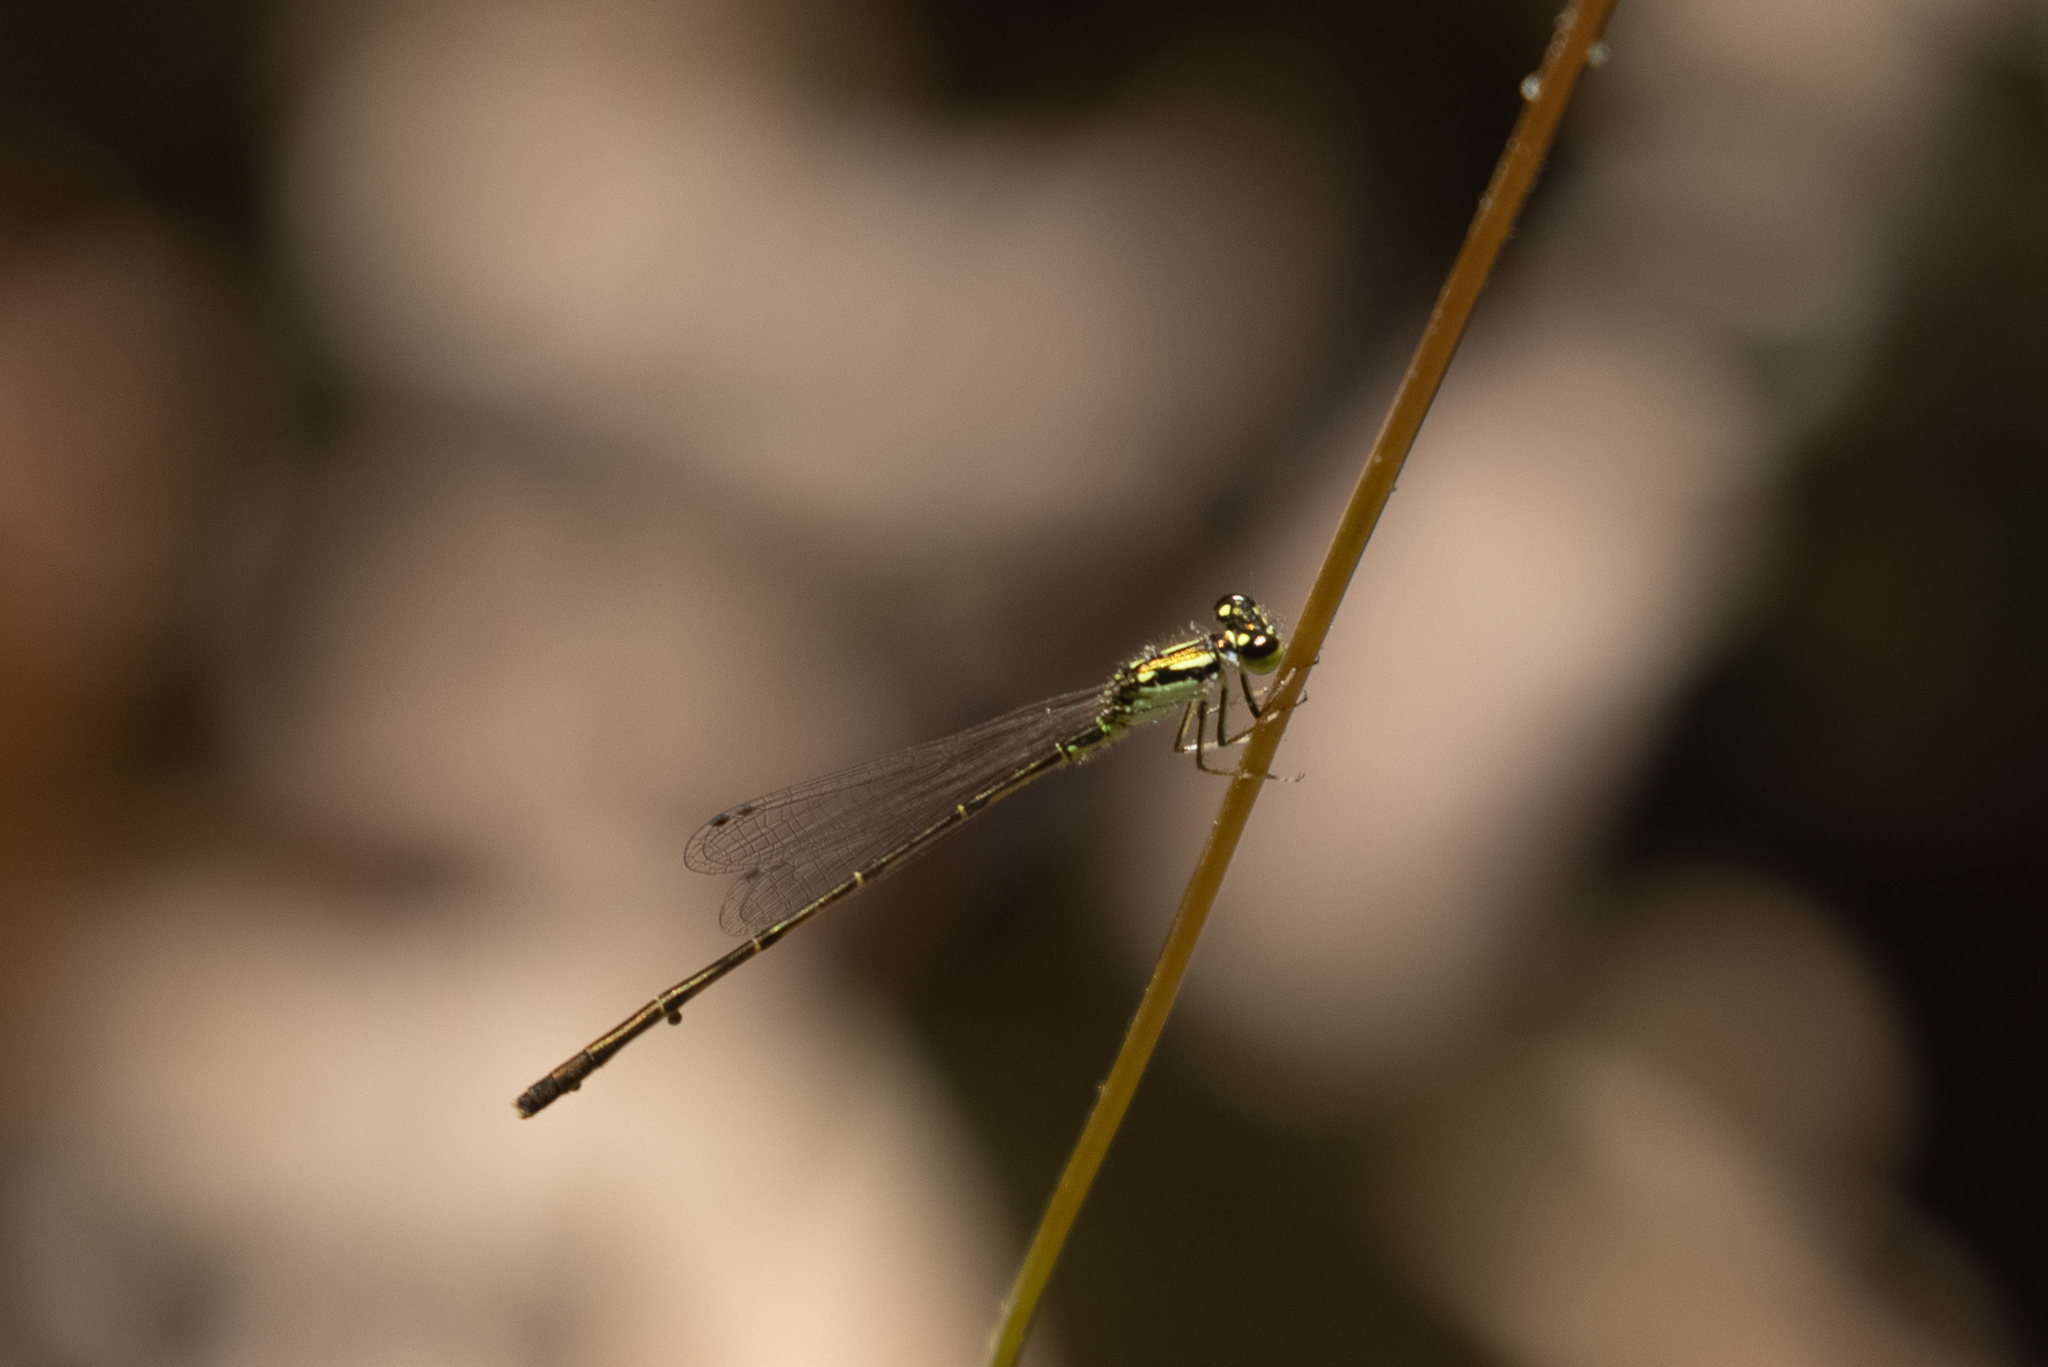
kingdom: Animalia
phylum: Arthropoda
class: Insecta
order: Odonata
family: Coenagrionidae
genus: Ischnura
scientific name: Ischnura posita
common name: Fragile forktail
